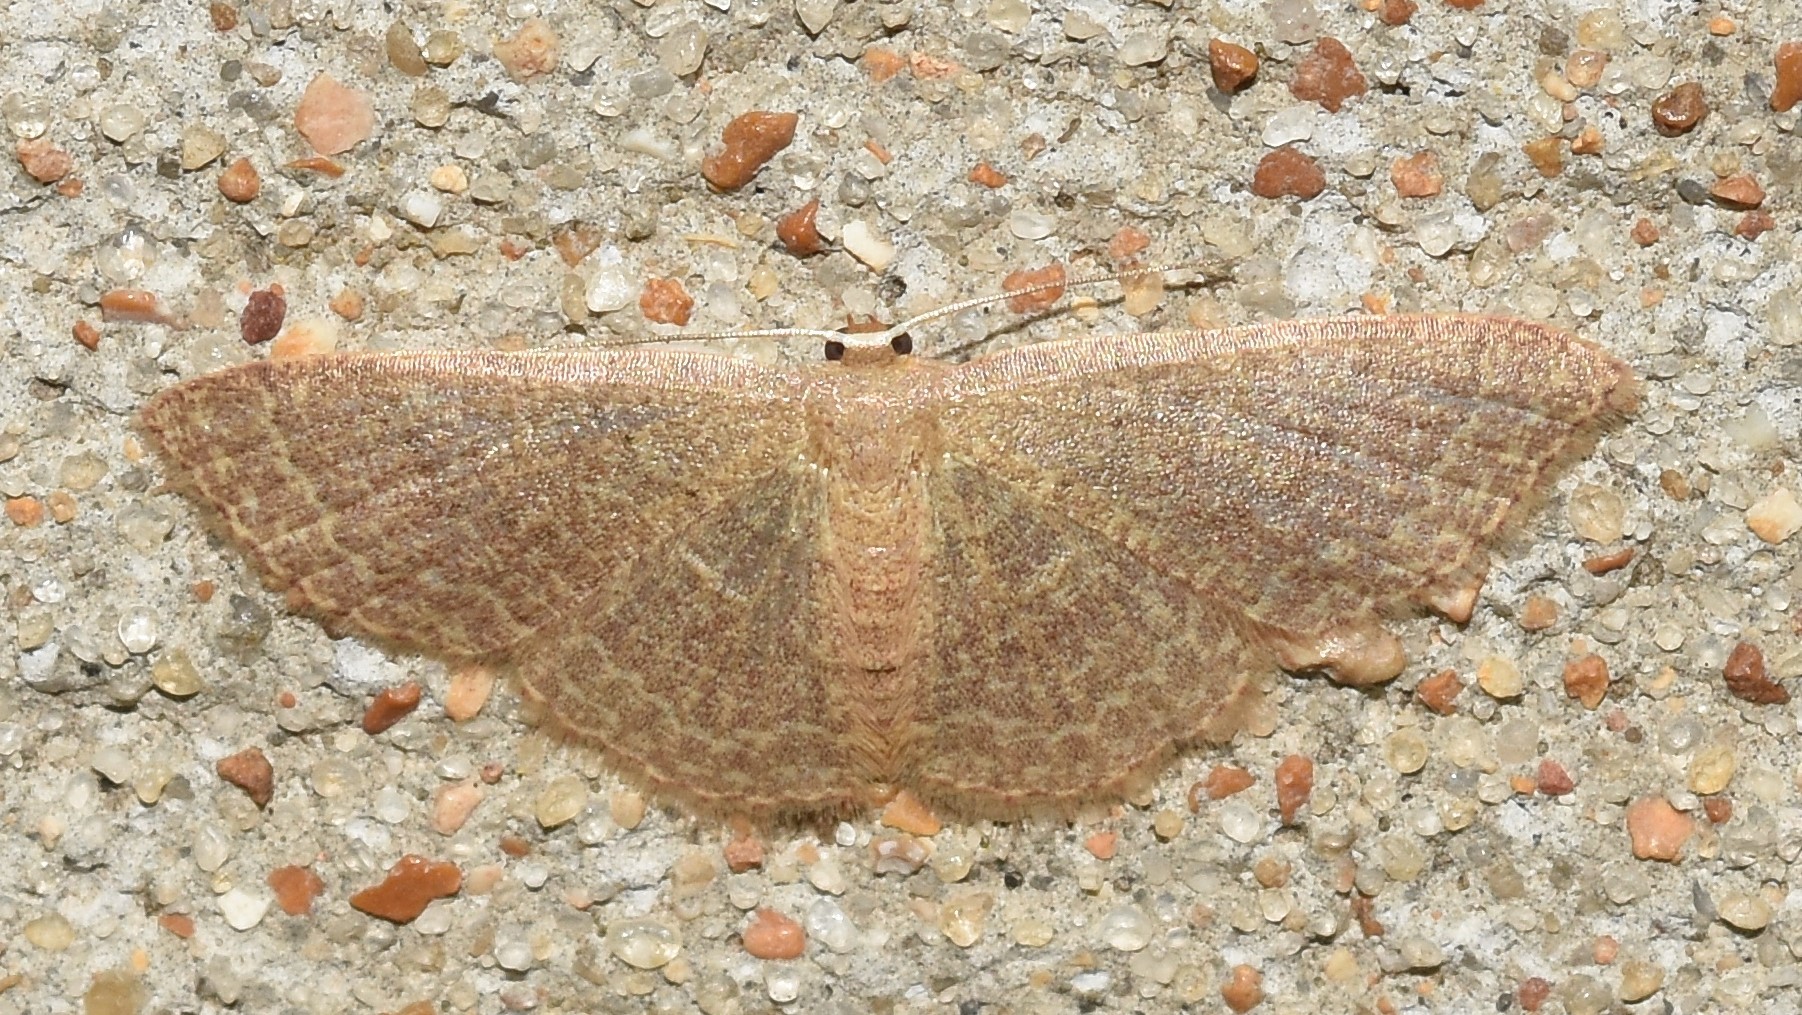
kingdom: Animalia
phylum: Arthropoda
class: Insecta
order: Lepidoptera
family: Geometridae
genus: Pleuroprucha
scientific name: Pleuroprucha insulsaria
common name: Common tan wave
